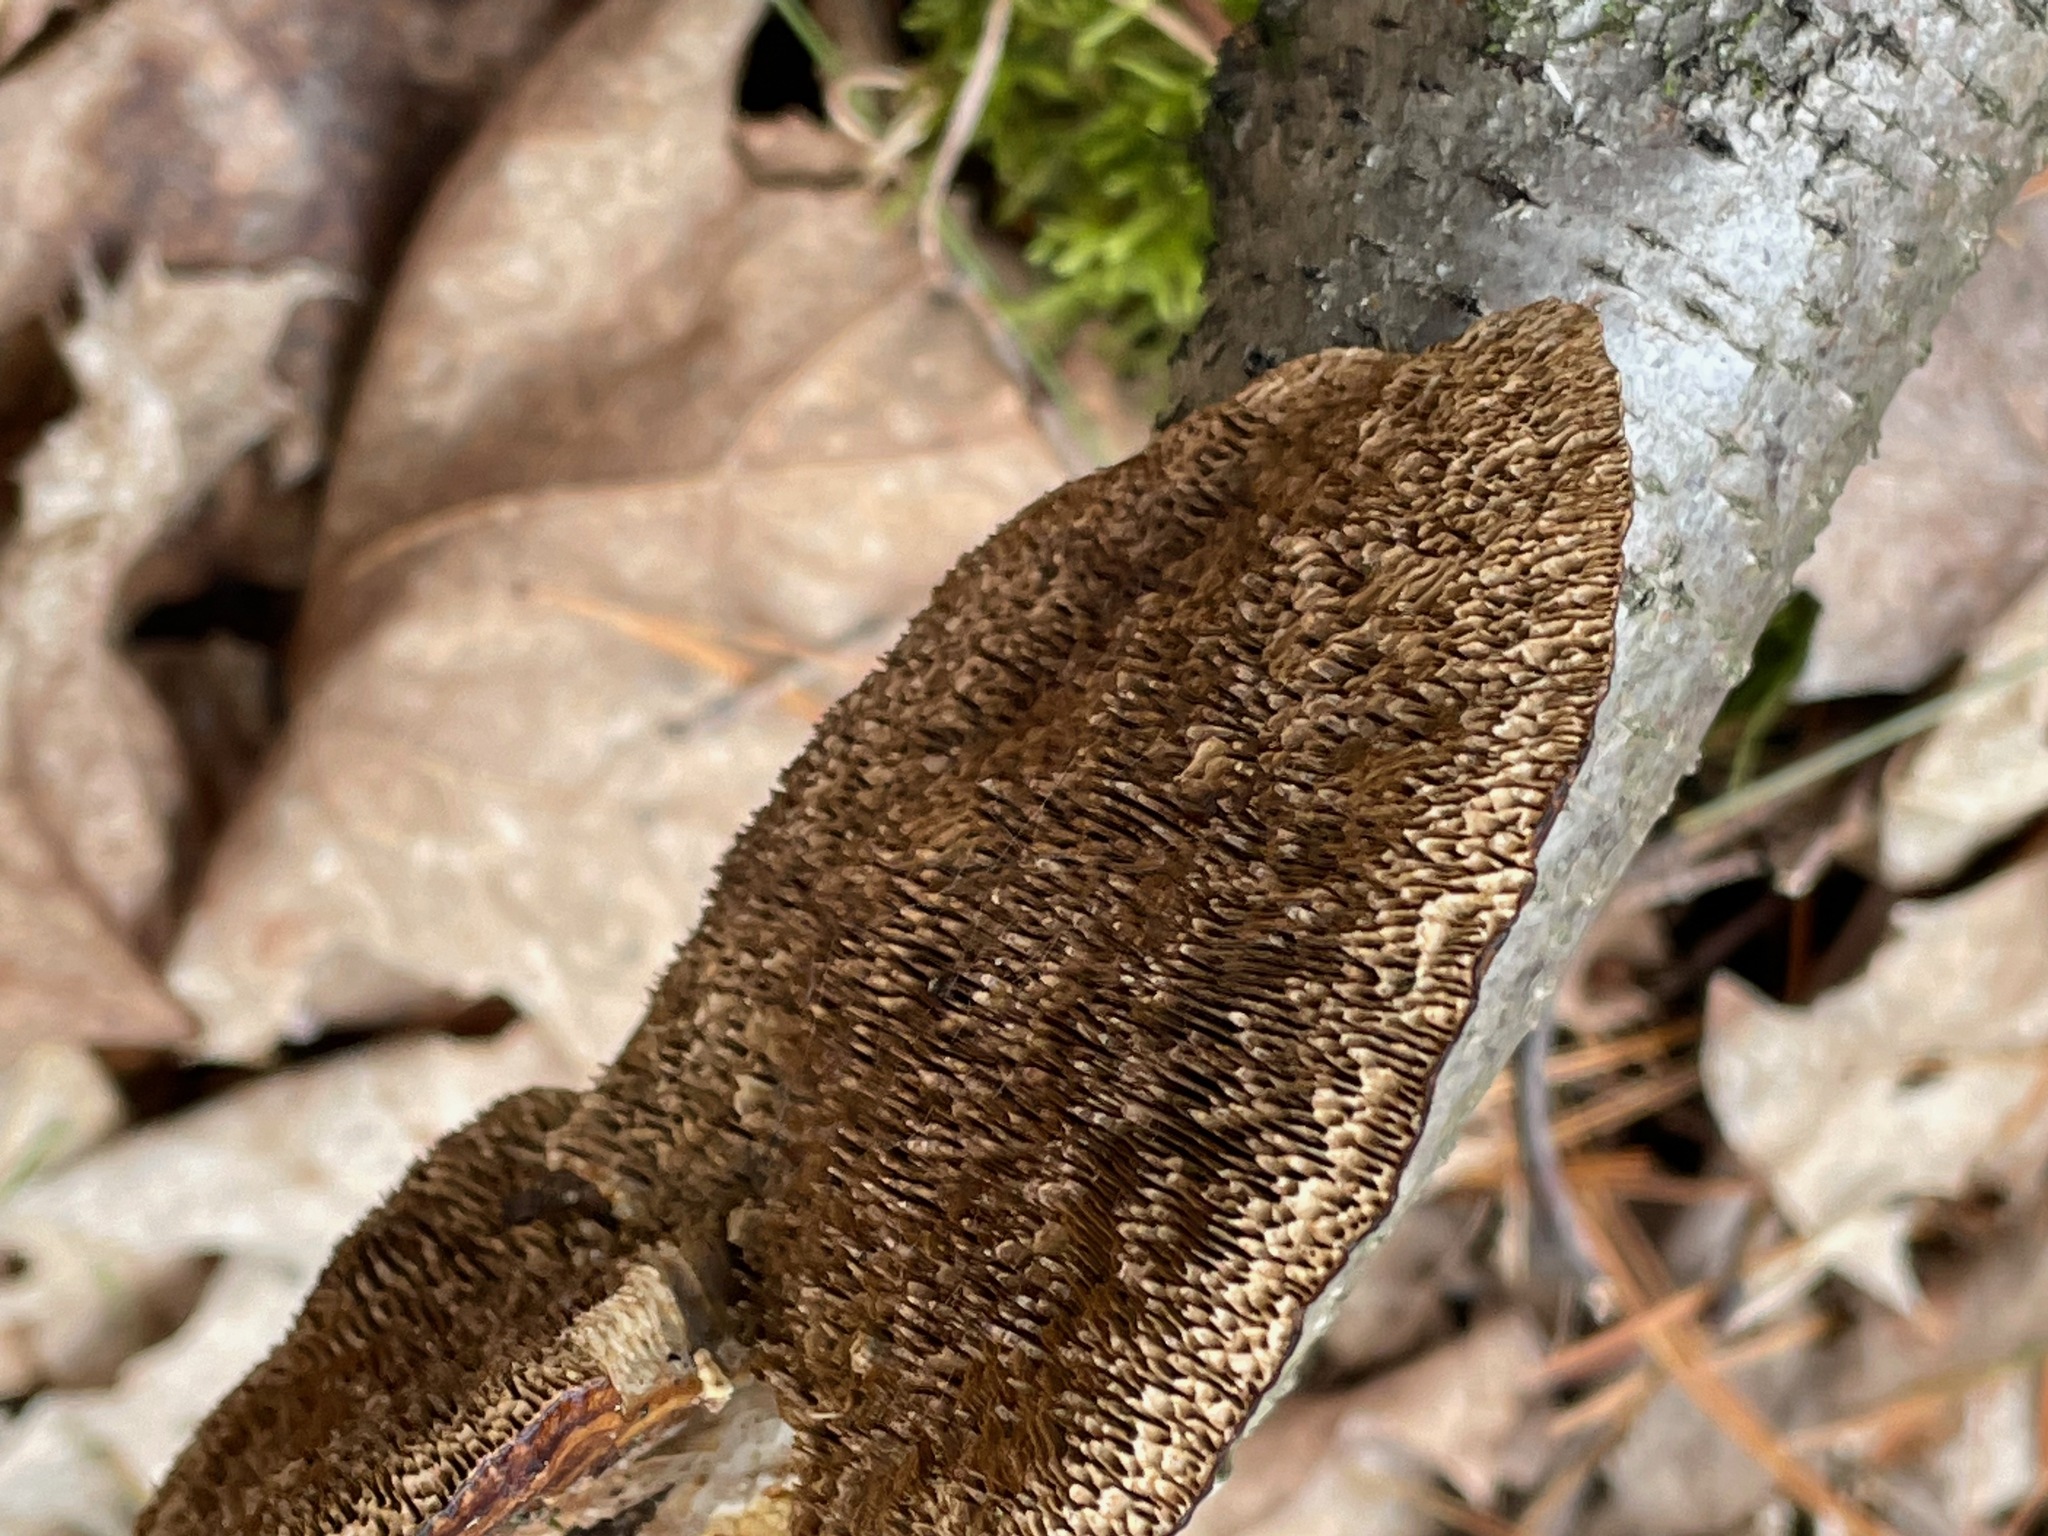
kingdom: Fungi
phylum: Basidiomycota
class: Agaricomycetes
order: Polyporales
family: Polyporaceae
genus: Daedaleopsis
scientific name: Daedaleopsis confragosa
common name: Blushing bracket
